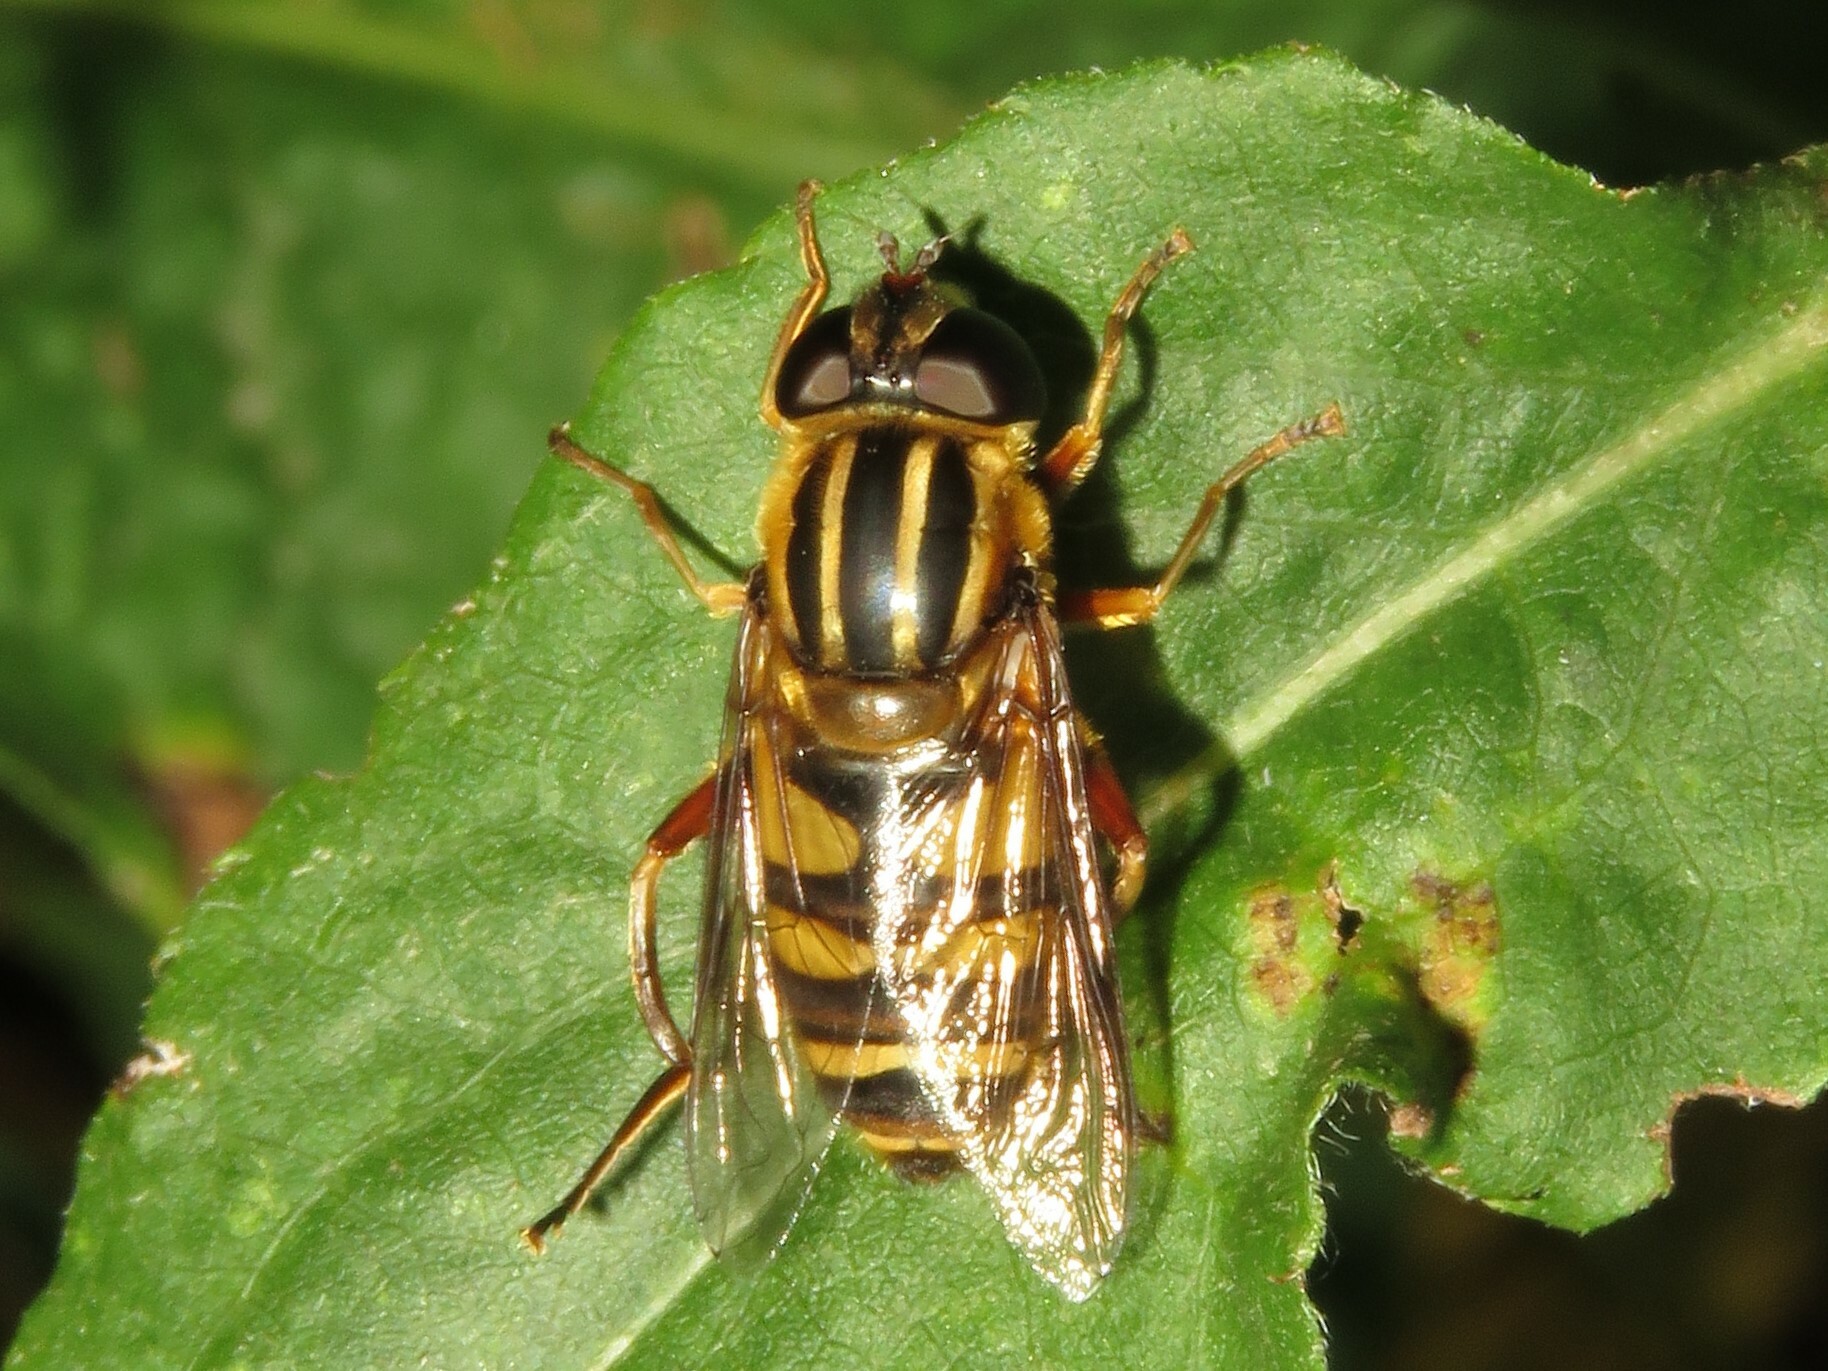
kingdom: Animalia
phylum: Arthropoda
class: Insecta
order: Diptera
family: Syrphidae
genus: Helophilus
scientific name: Helophilus fasciatus
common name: Narrow-headed marsh fly
